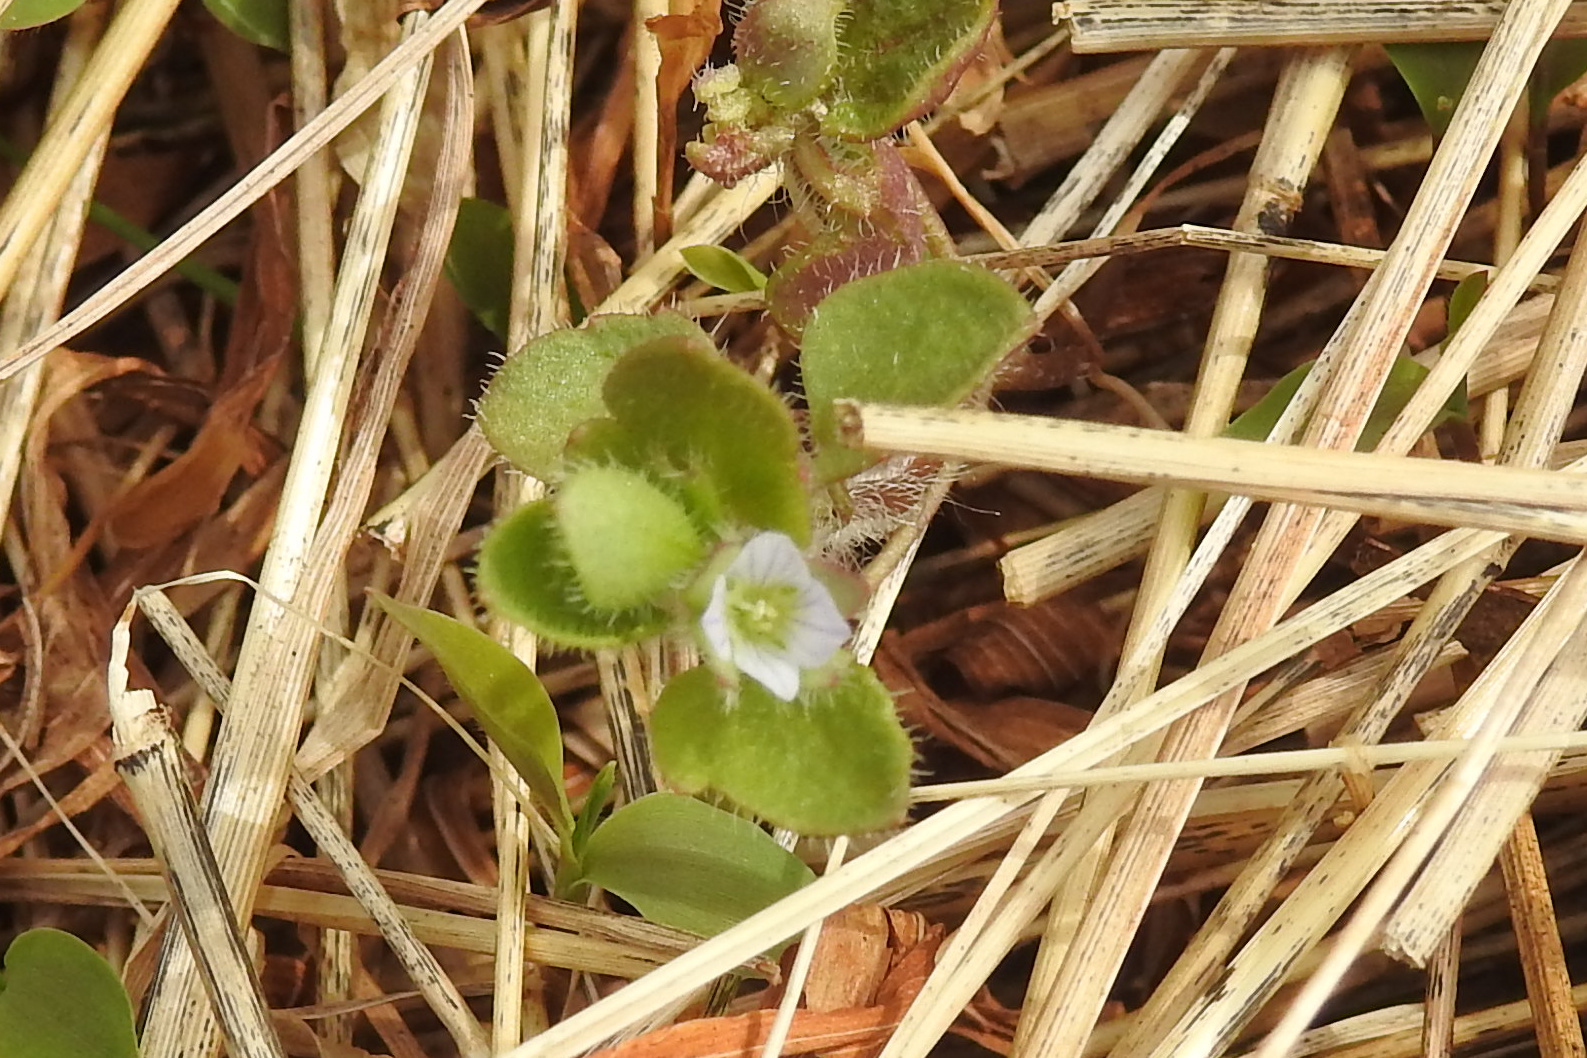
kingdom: Plantae
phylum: Tracheophyta
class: Magnoliopsida
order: Lamiales
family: Plantaginaceae
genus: Veronica
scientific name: Veronica hederifolia
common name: Ivy-leaved speedwell
